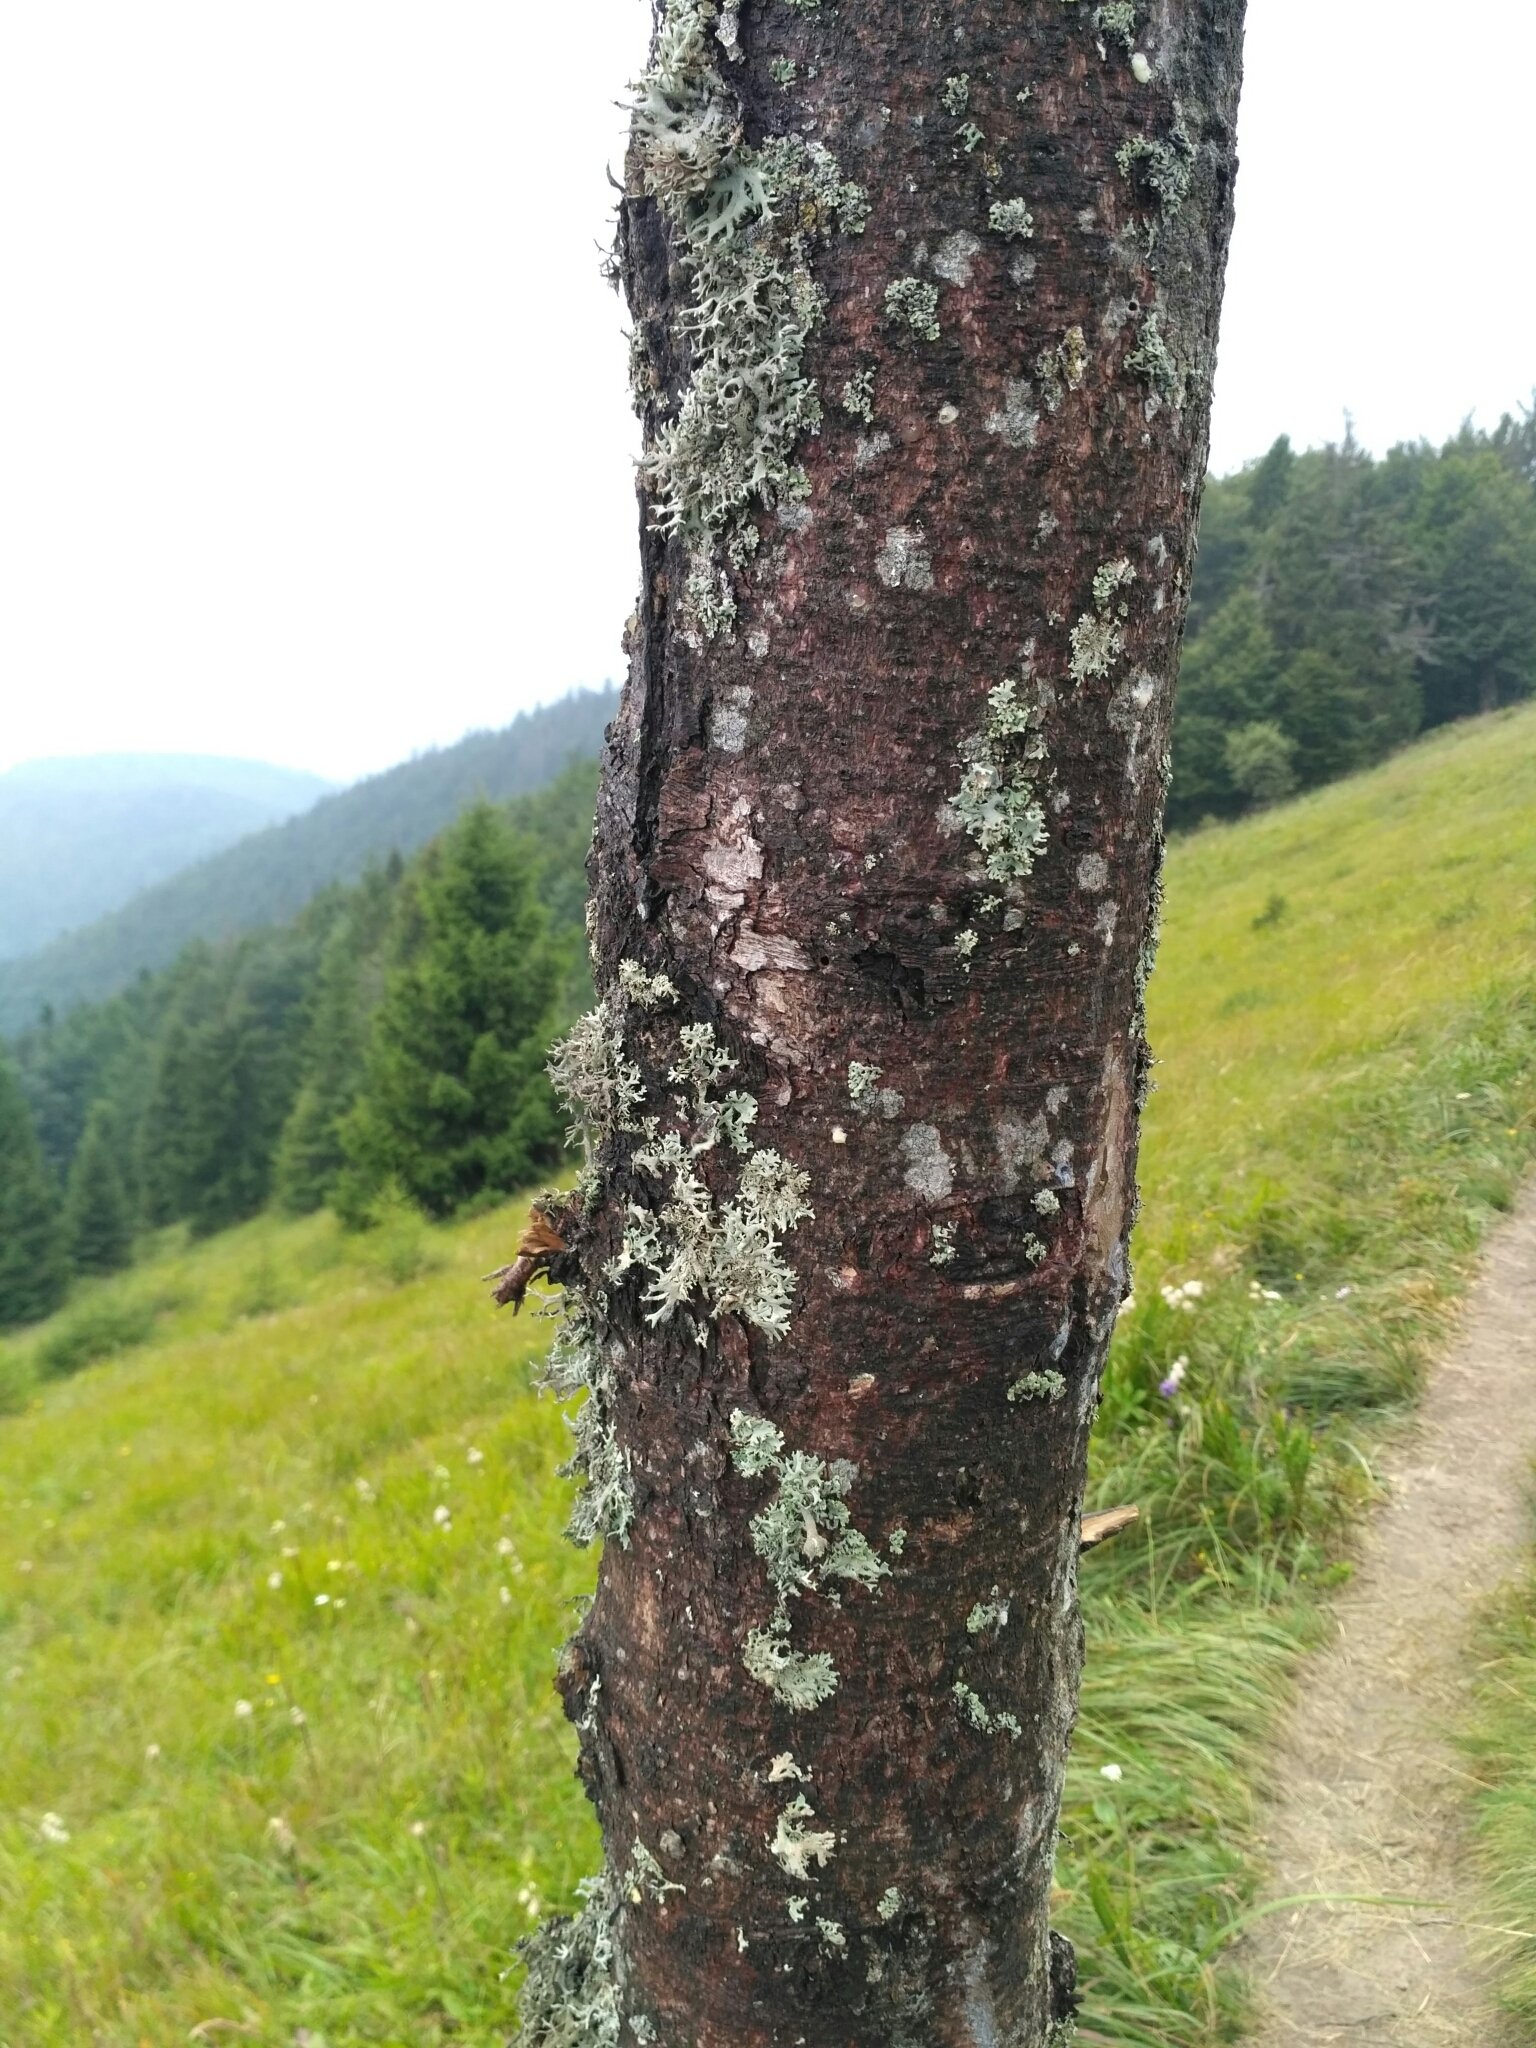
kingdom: Fungi
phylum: Ascomycota
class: Lecanoromycetes
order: Lecanorales
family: Parmeliaceae
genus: Pseudevernia
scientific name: Pseudevernia furfuracea
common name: Tree moss
